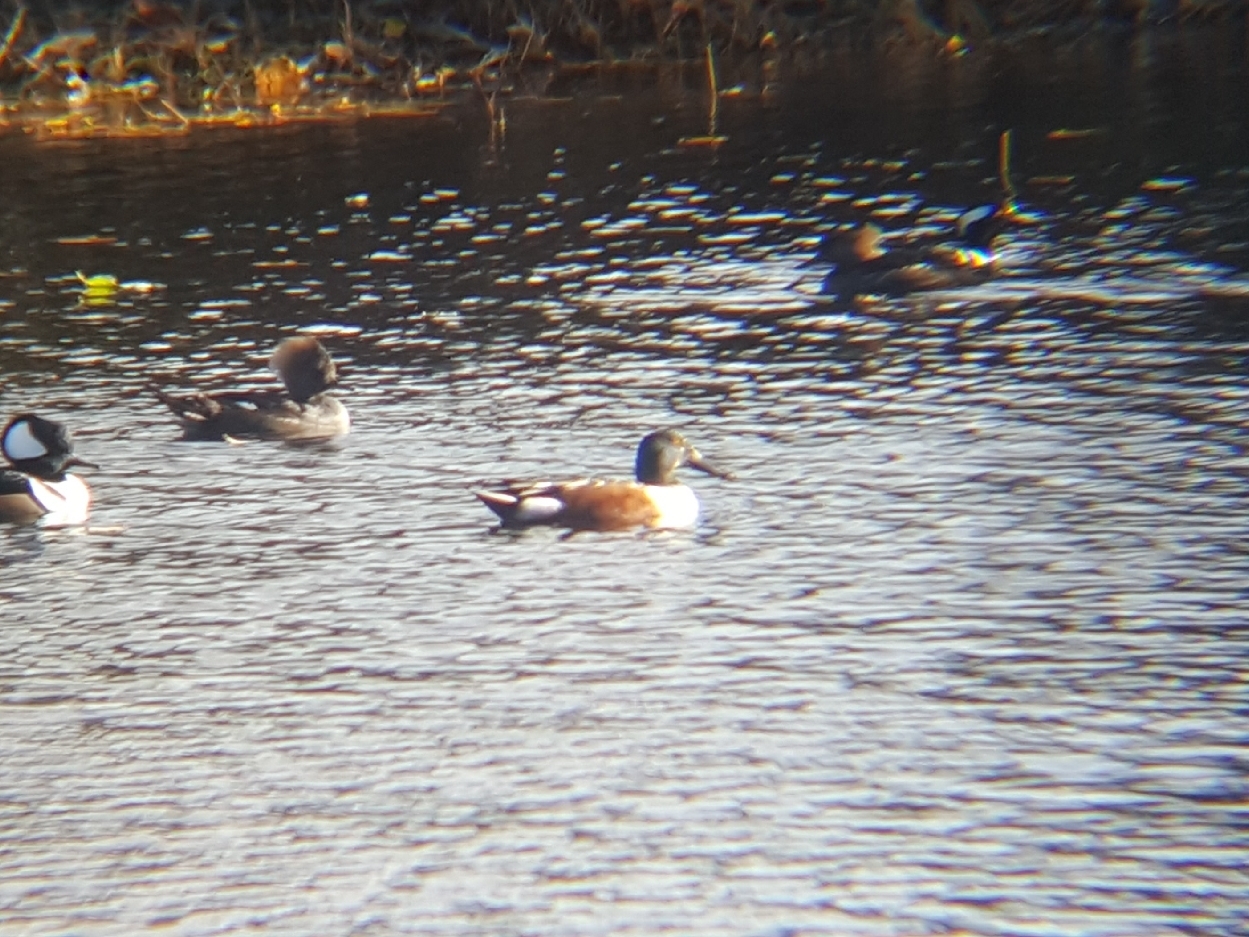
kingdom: Animalia
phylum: Chordata
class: Aves
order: Anseriformes
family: Anatidae
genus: Spatula
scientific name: Spatula clypeata
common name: Northern shoveler
